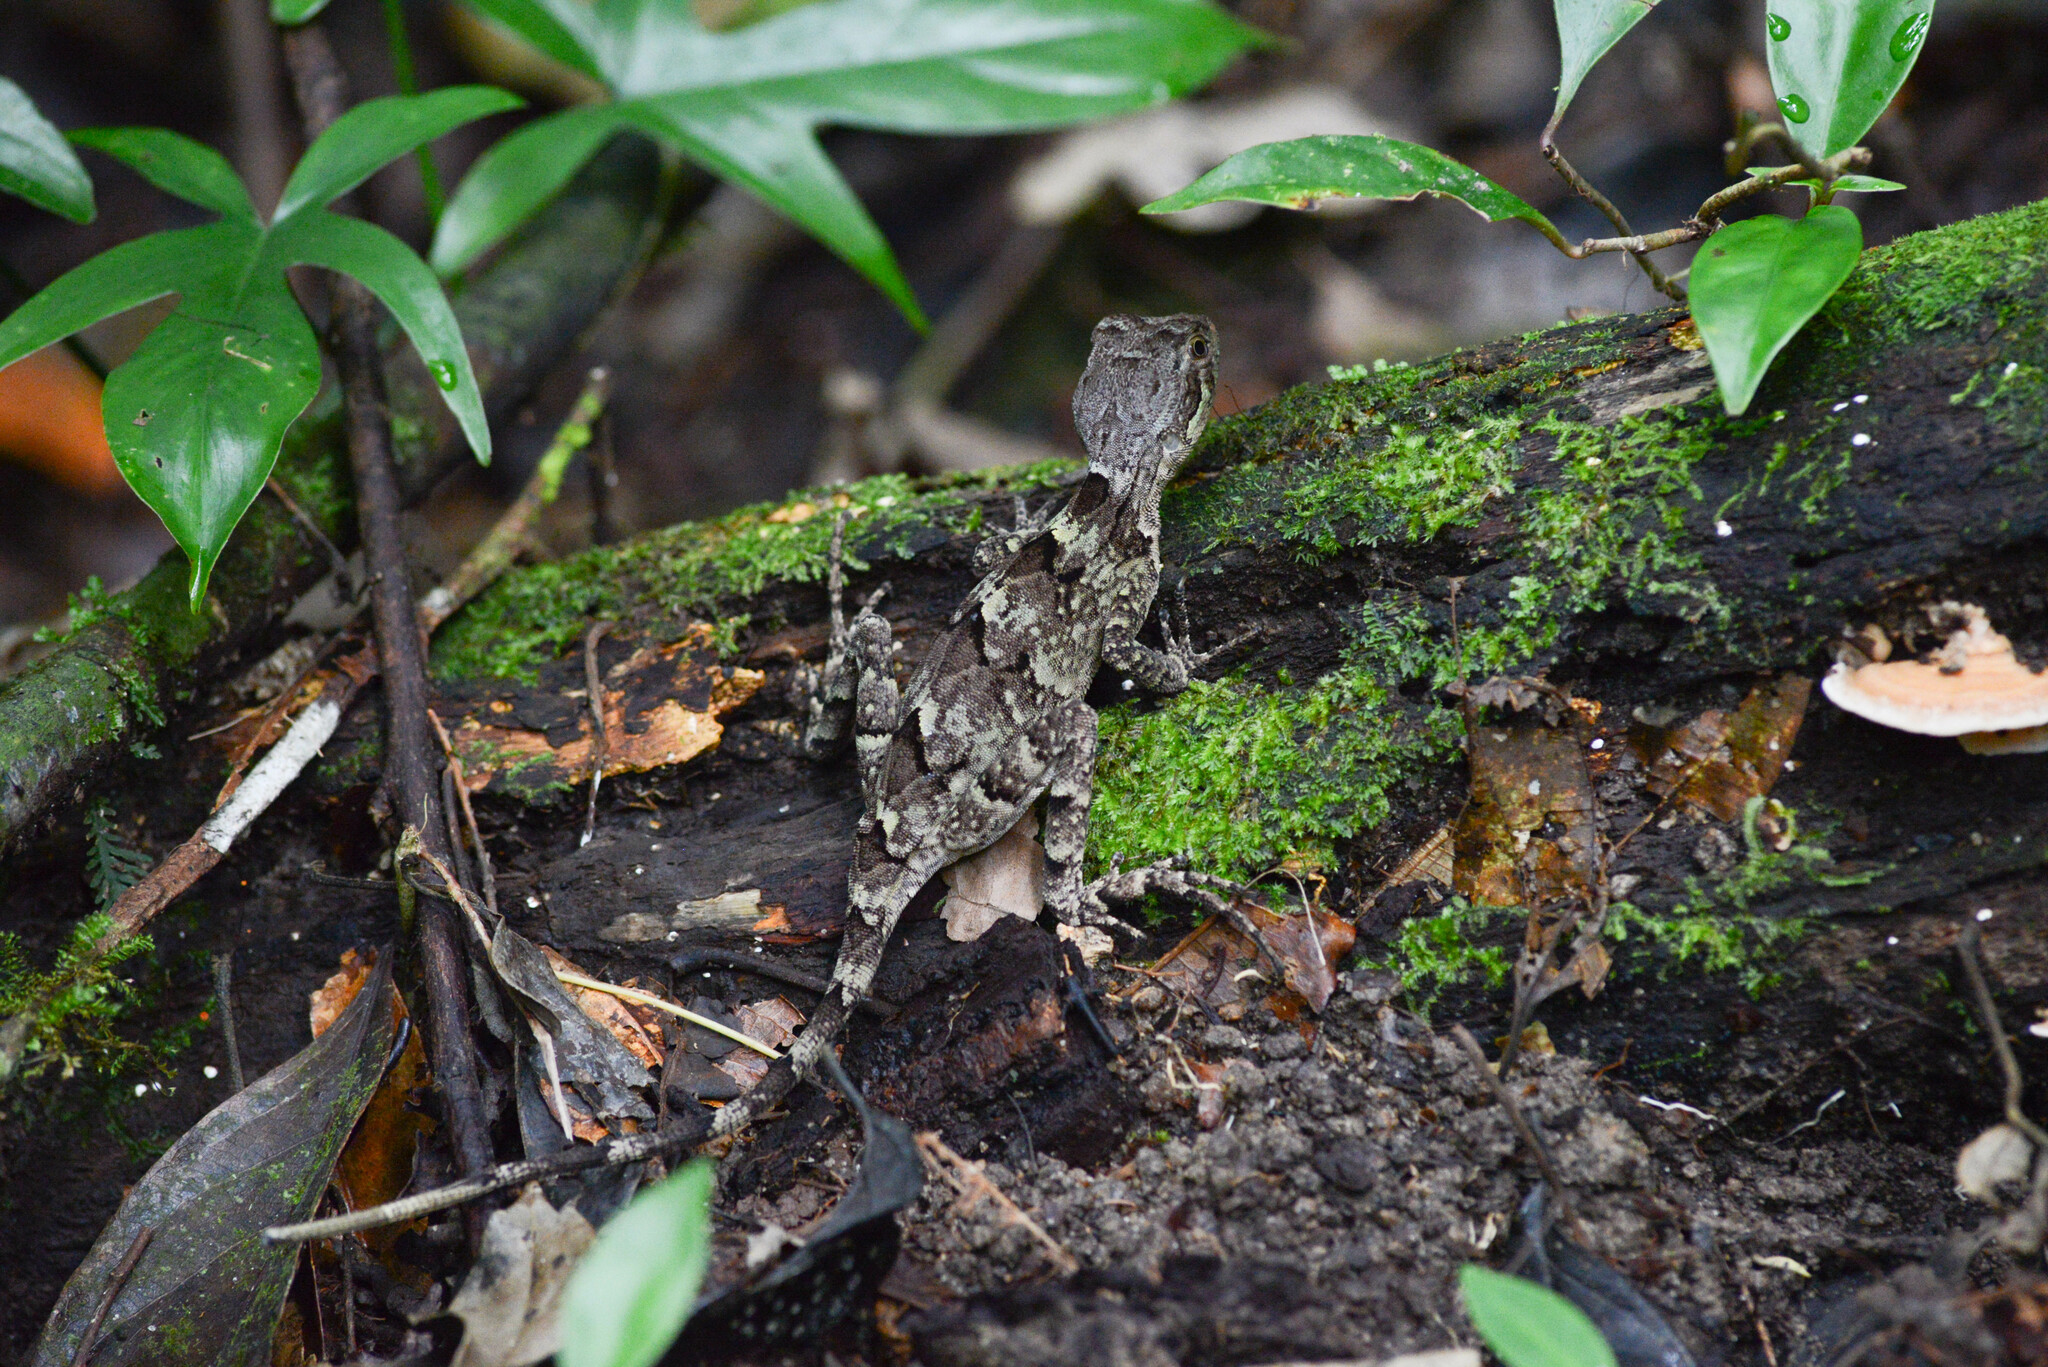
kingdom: Animalia
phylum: Chordata
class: Squamata
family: Leiosauridae
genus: Enyalius
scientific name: Enyalius catenatus
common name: Wied's fathead anole
